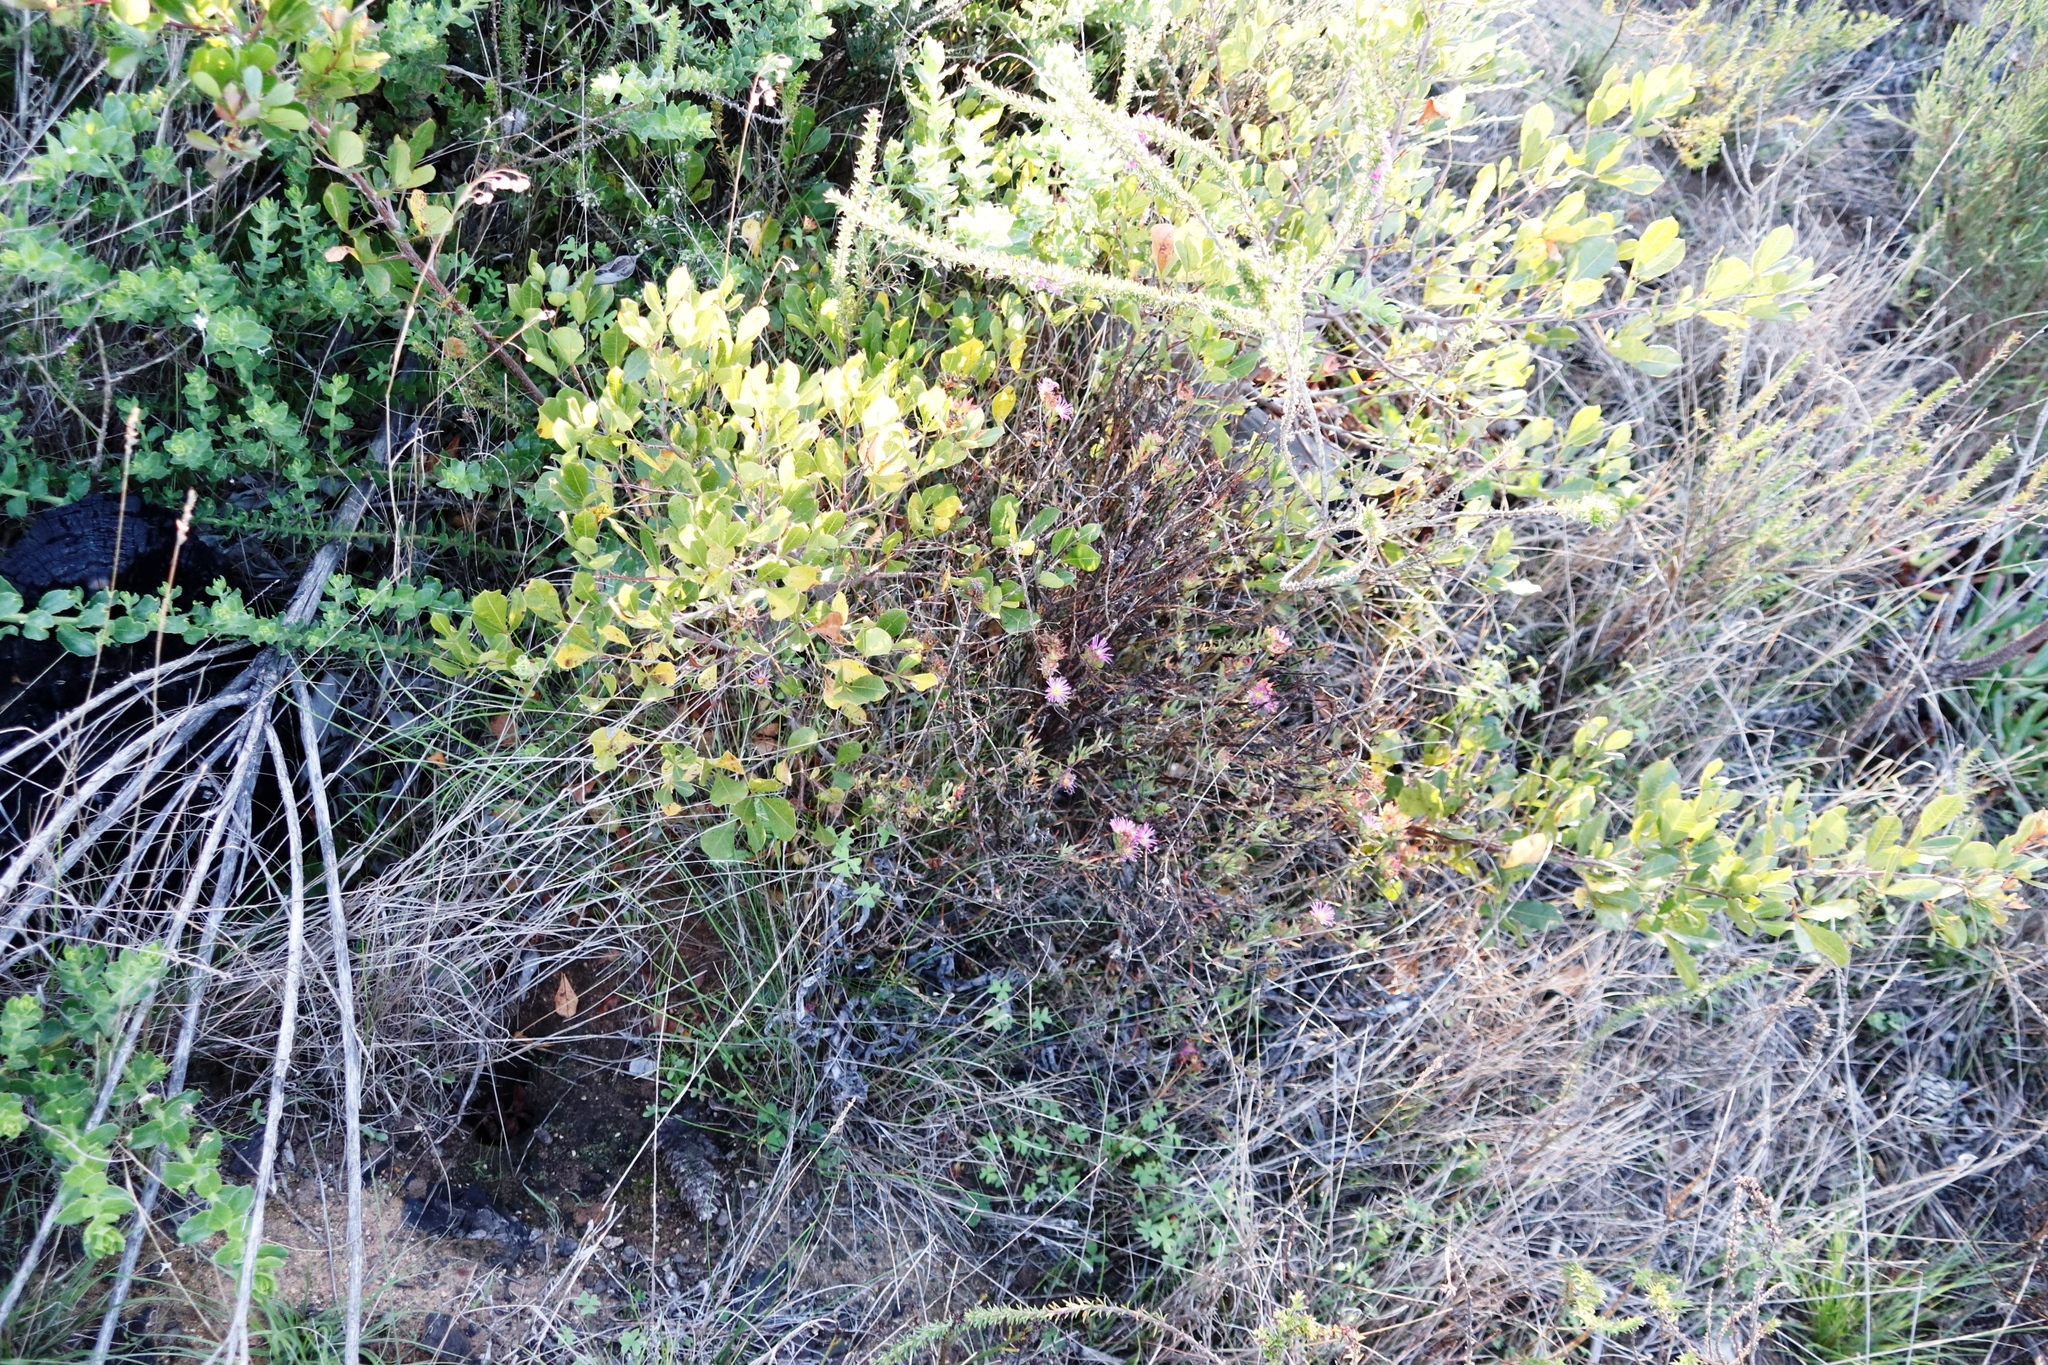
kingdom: Plantae
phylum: Tracheophyta
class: Magnoliopsida
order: Sapindales
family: Anacardiaceae
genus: Searsia
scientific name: Searsia laevigata
